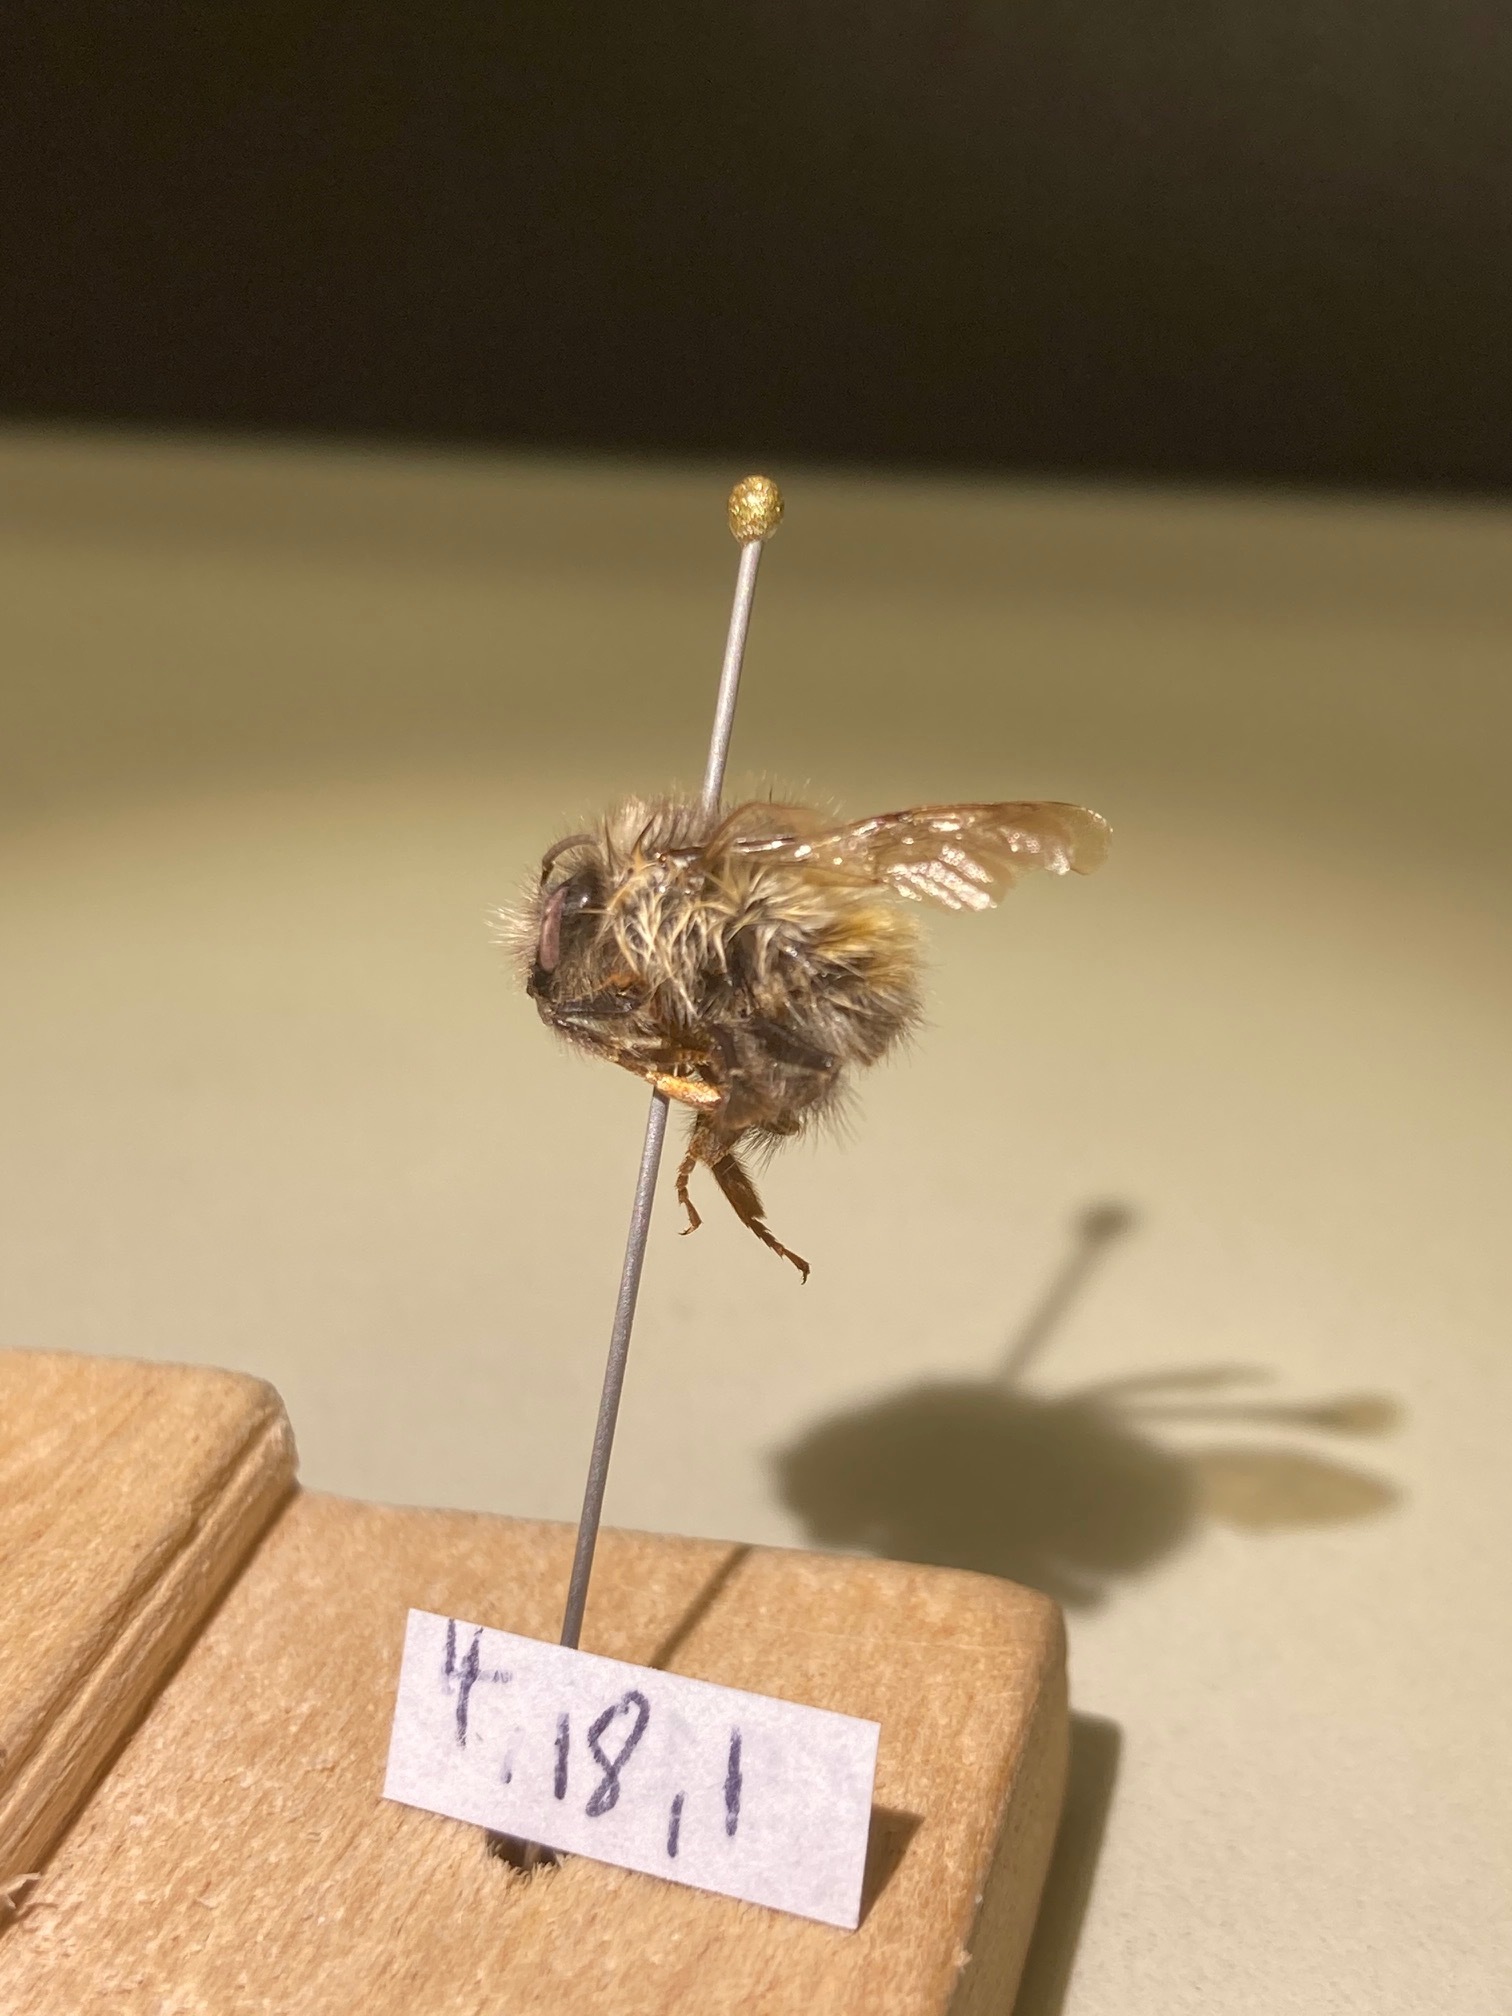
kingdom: Animalia
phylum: Arthropoda
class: Insecta
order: Hymenoptera
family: Apidae
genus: Bombus
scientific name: Bombus flavifrons
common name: Yellow head bumble bee
